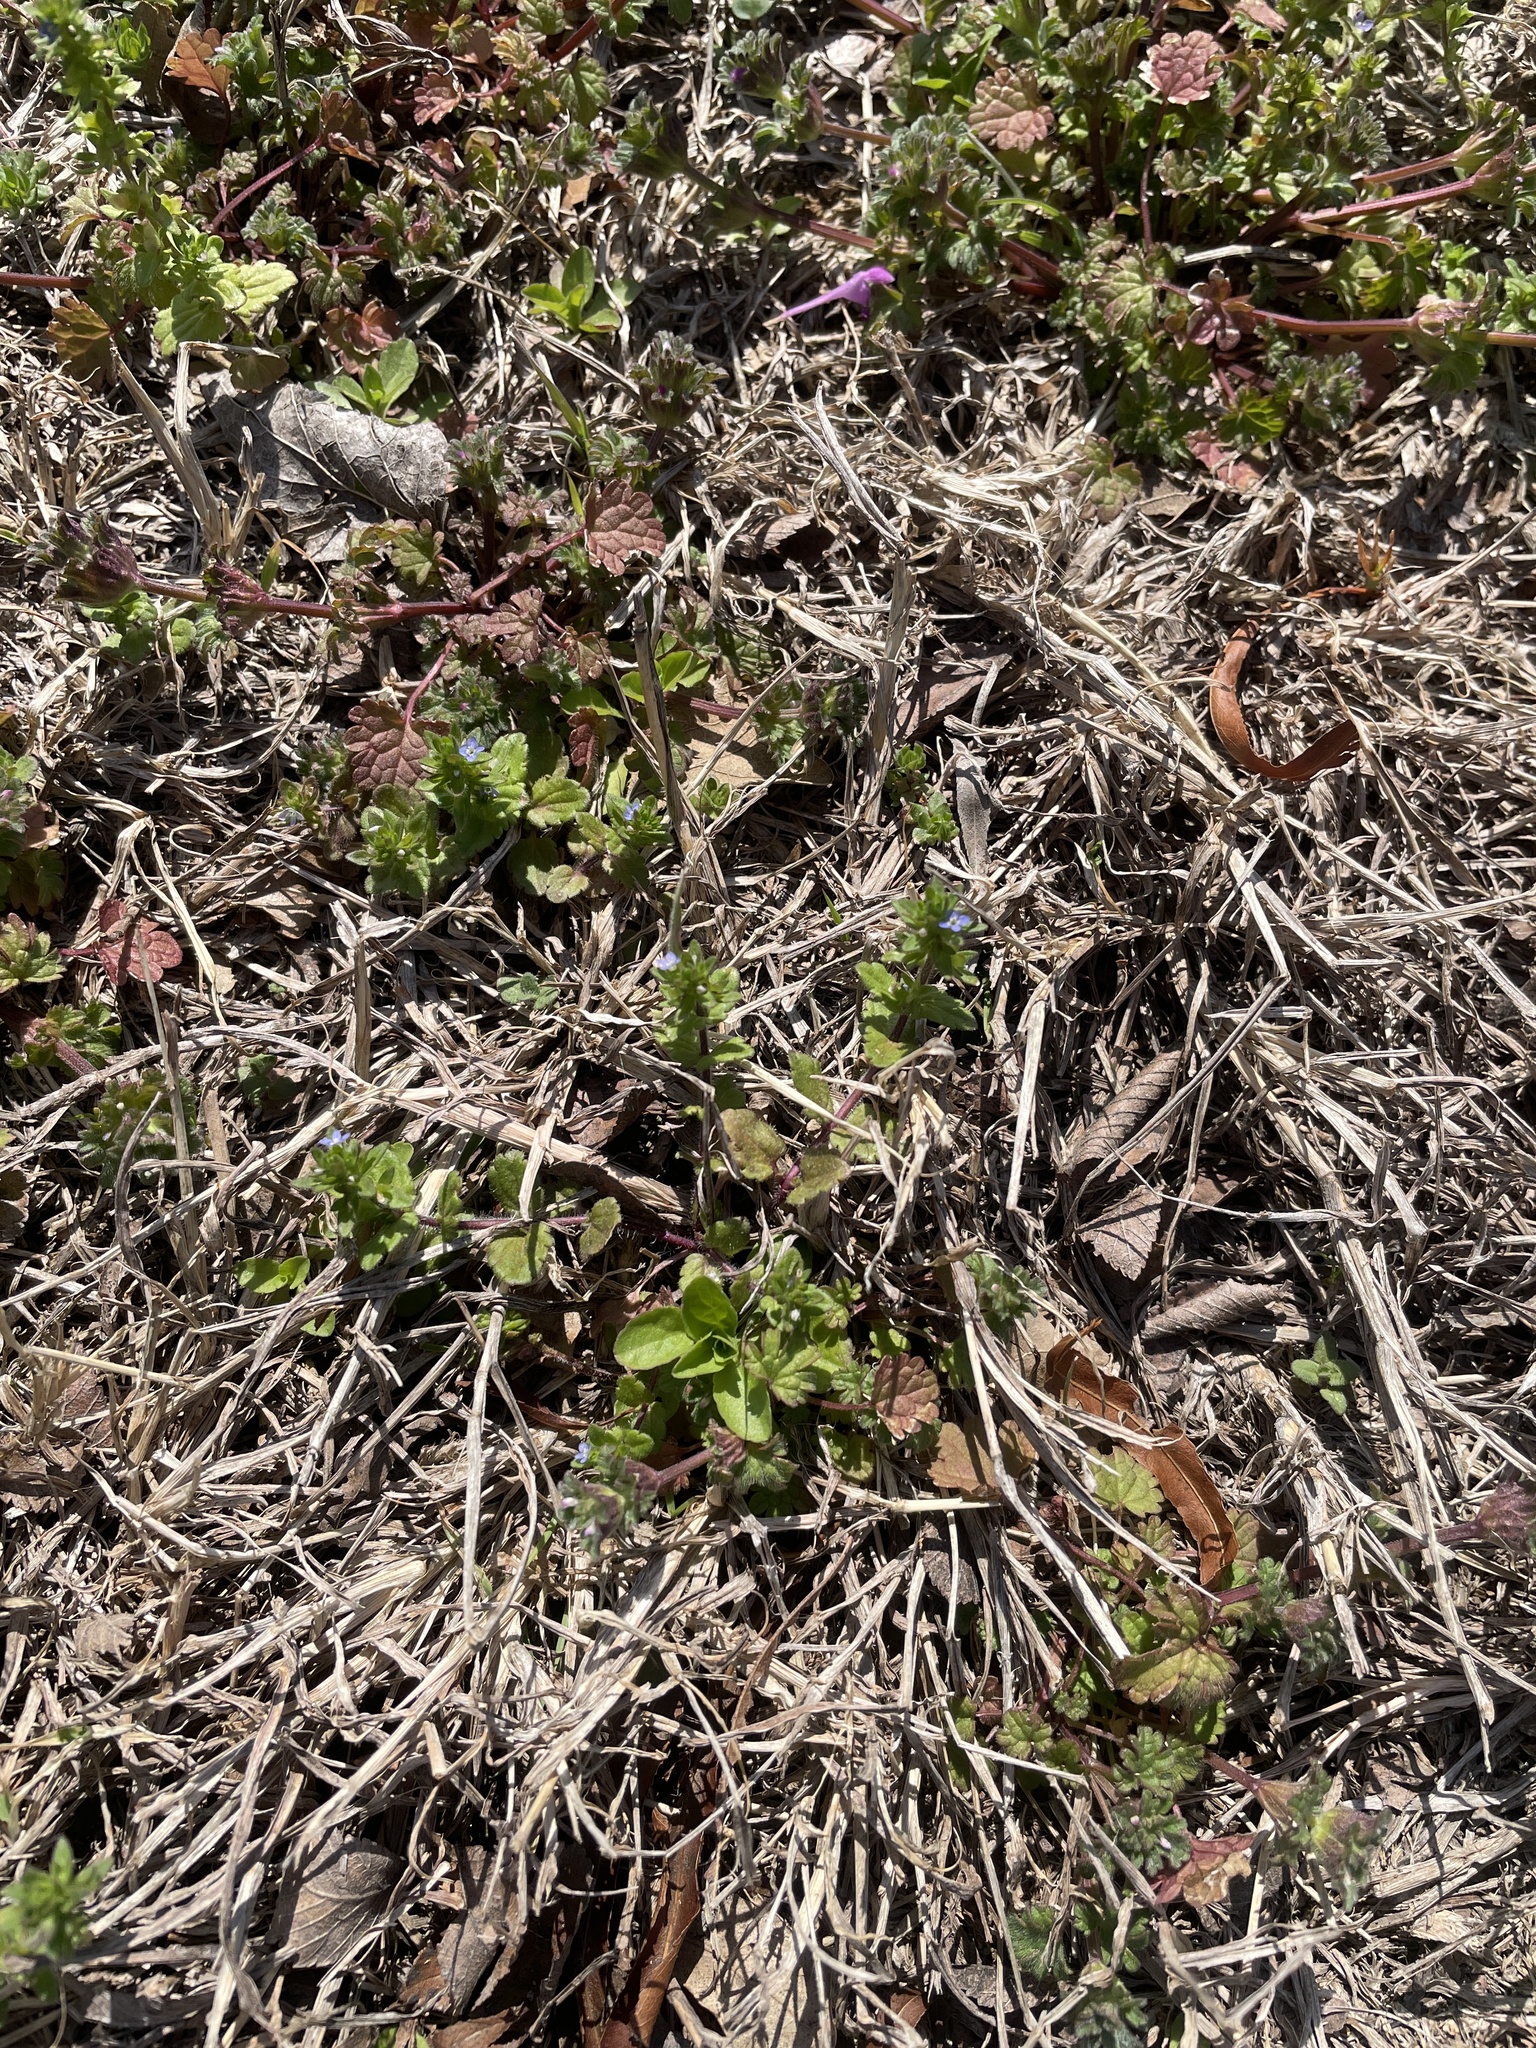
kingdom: Plantae
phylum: Tracheophyta
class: Magnoliopsida
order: Lamiales
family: Plantaginaceae
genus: Veronica
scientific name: Veronica arvensis
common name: Corn speedwell
